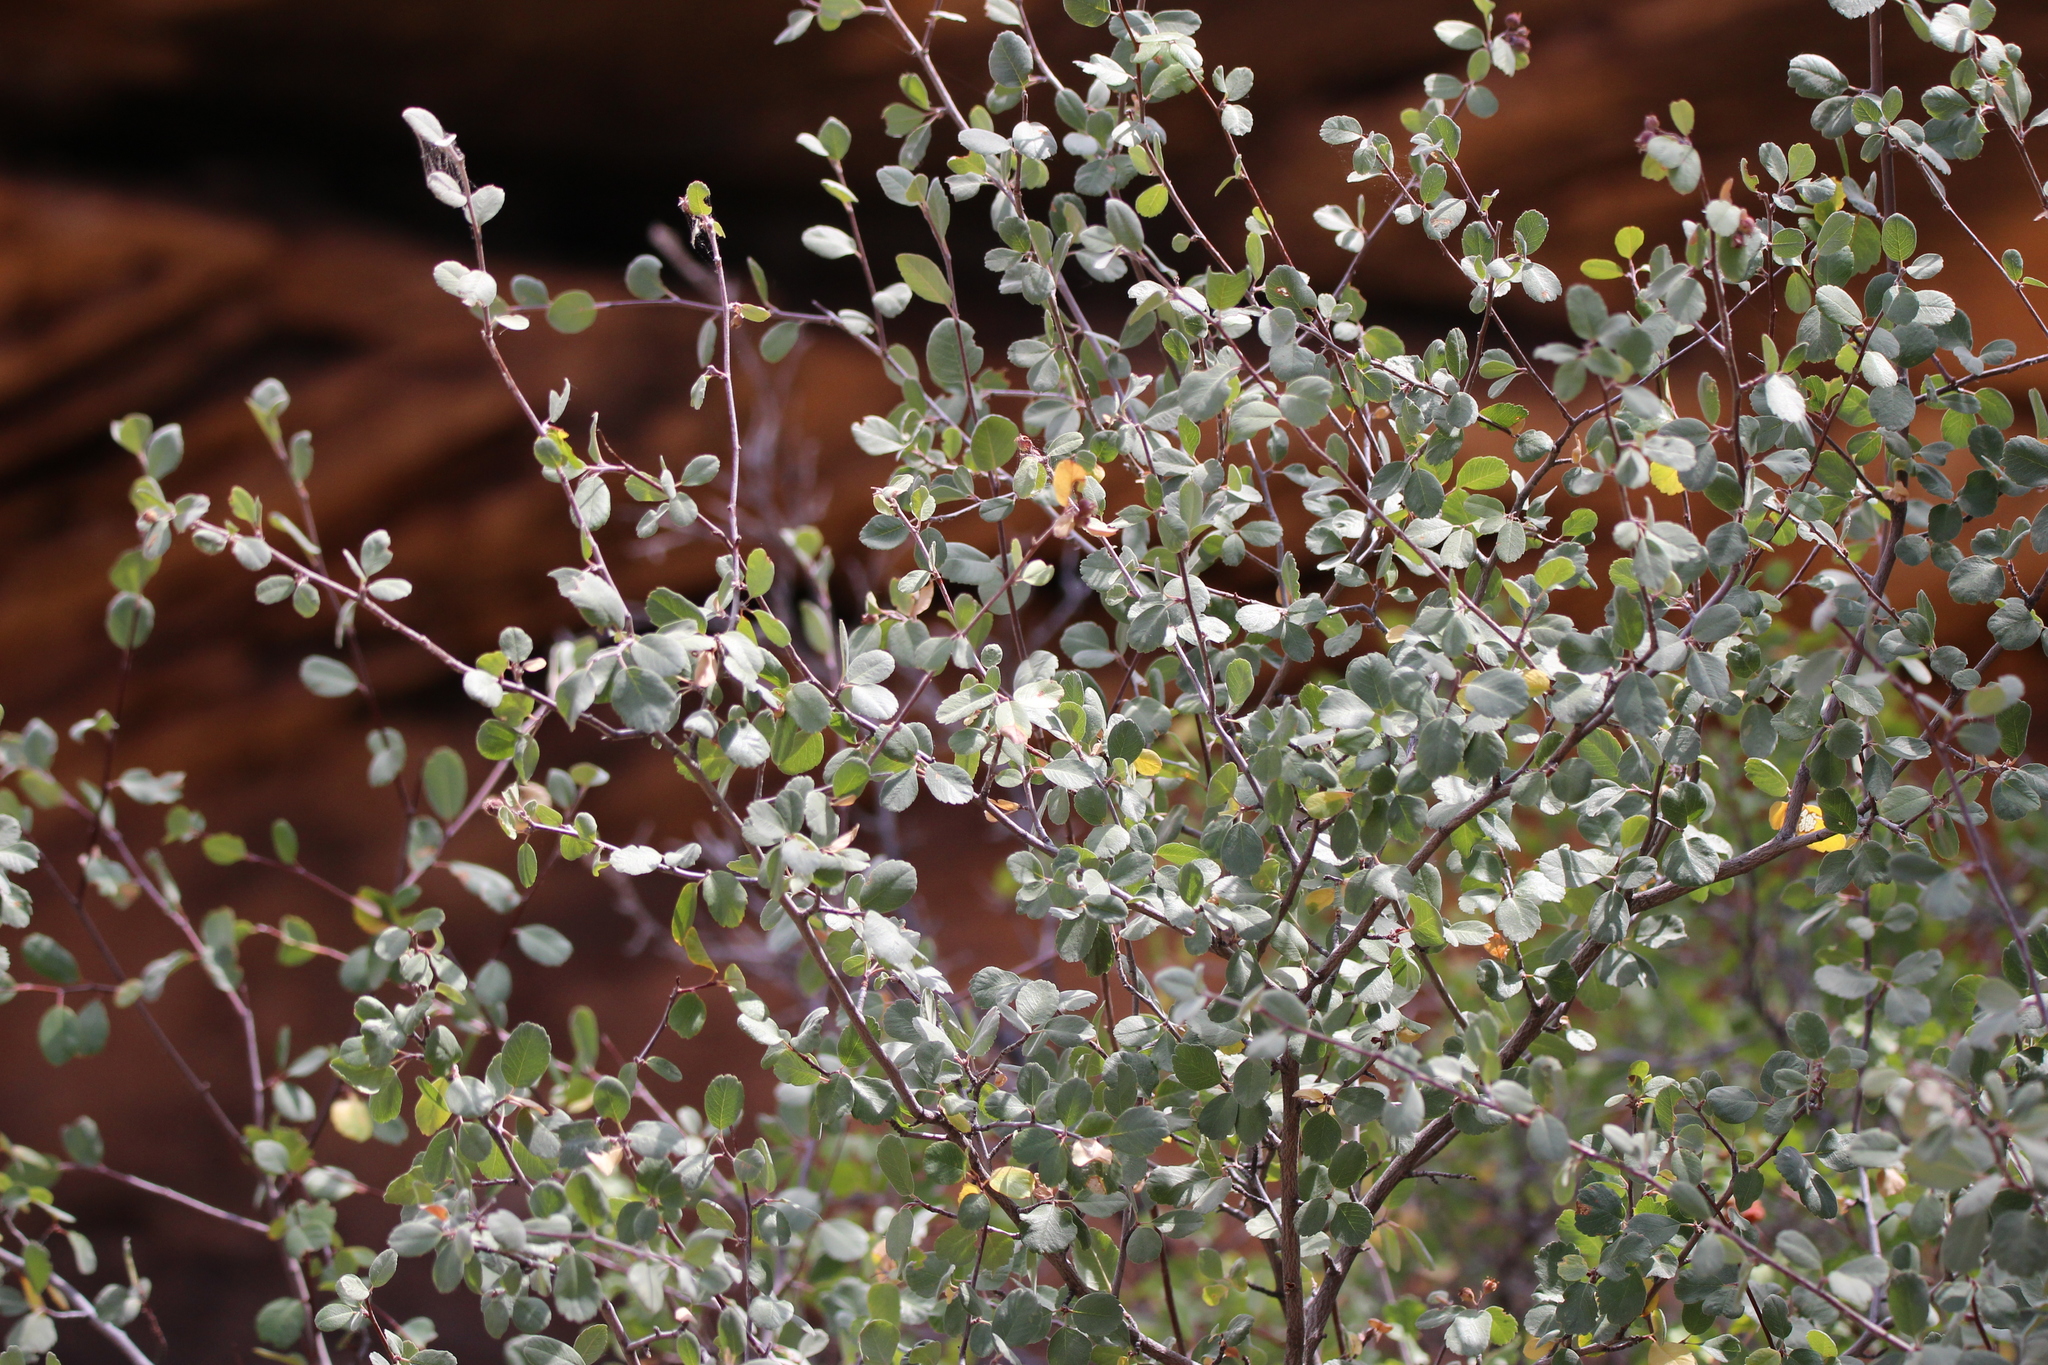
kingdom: Plantae
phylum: Tracheophyta
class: Magnoliopsida
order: Rosales
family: Rosaceae
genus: Amelanchier
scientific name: Amelanchier utahensis
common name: Utah serviceberry
